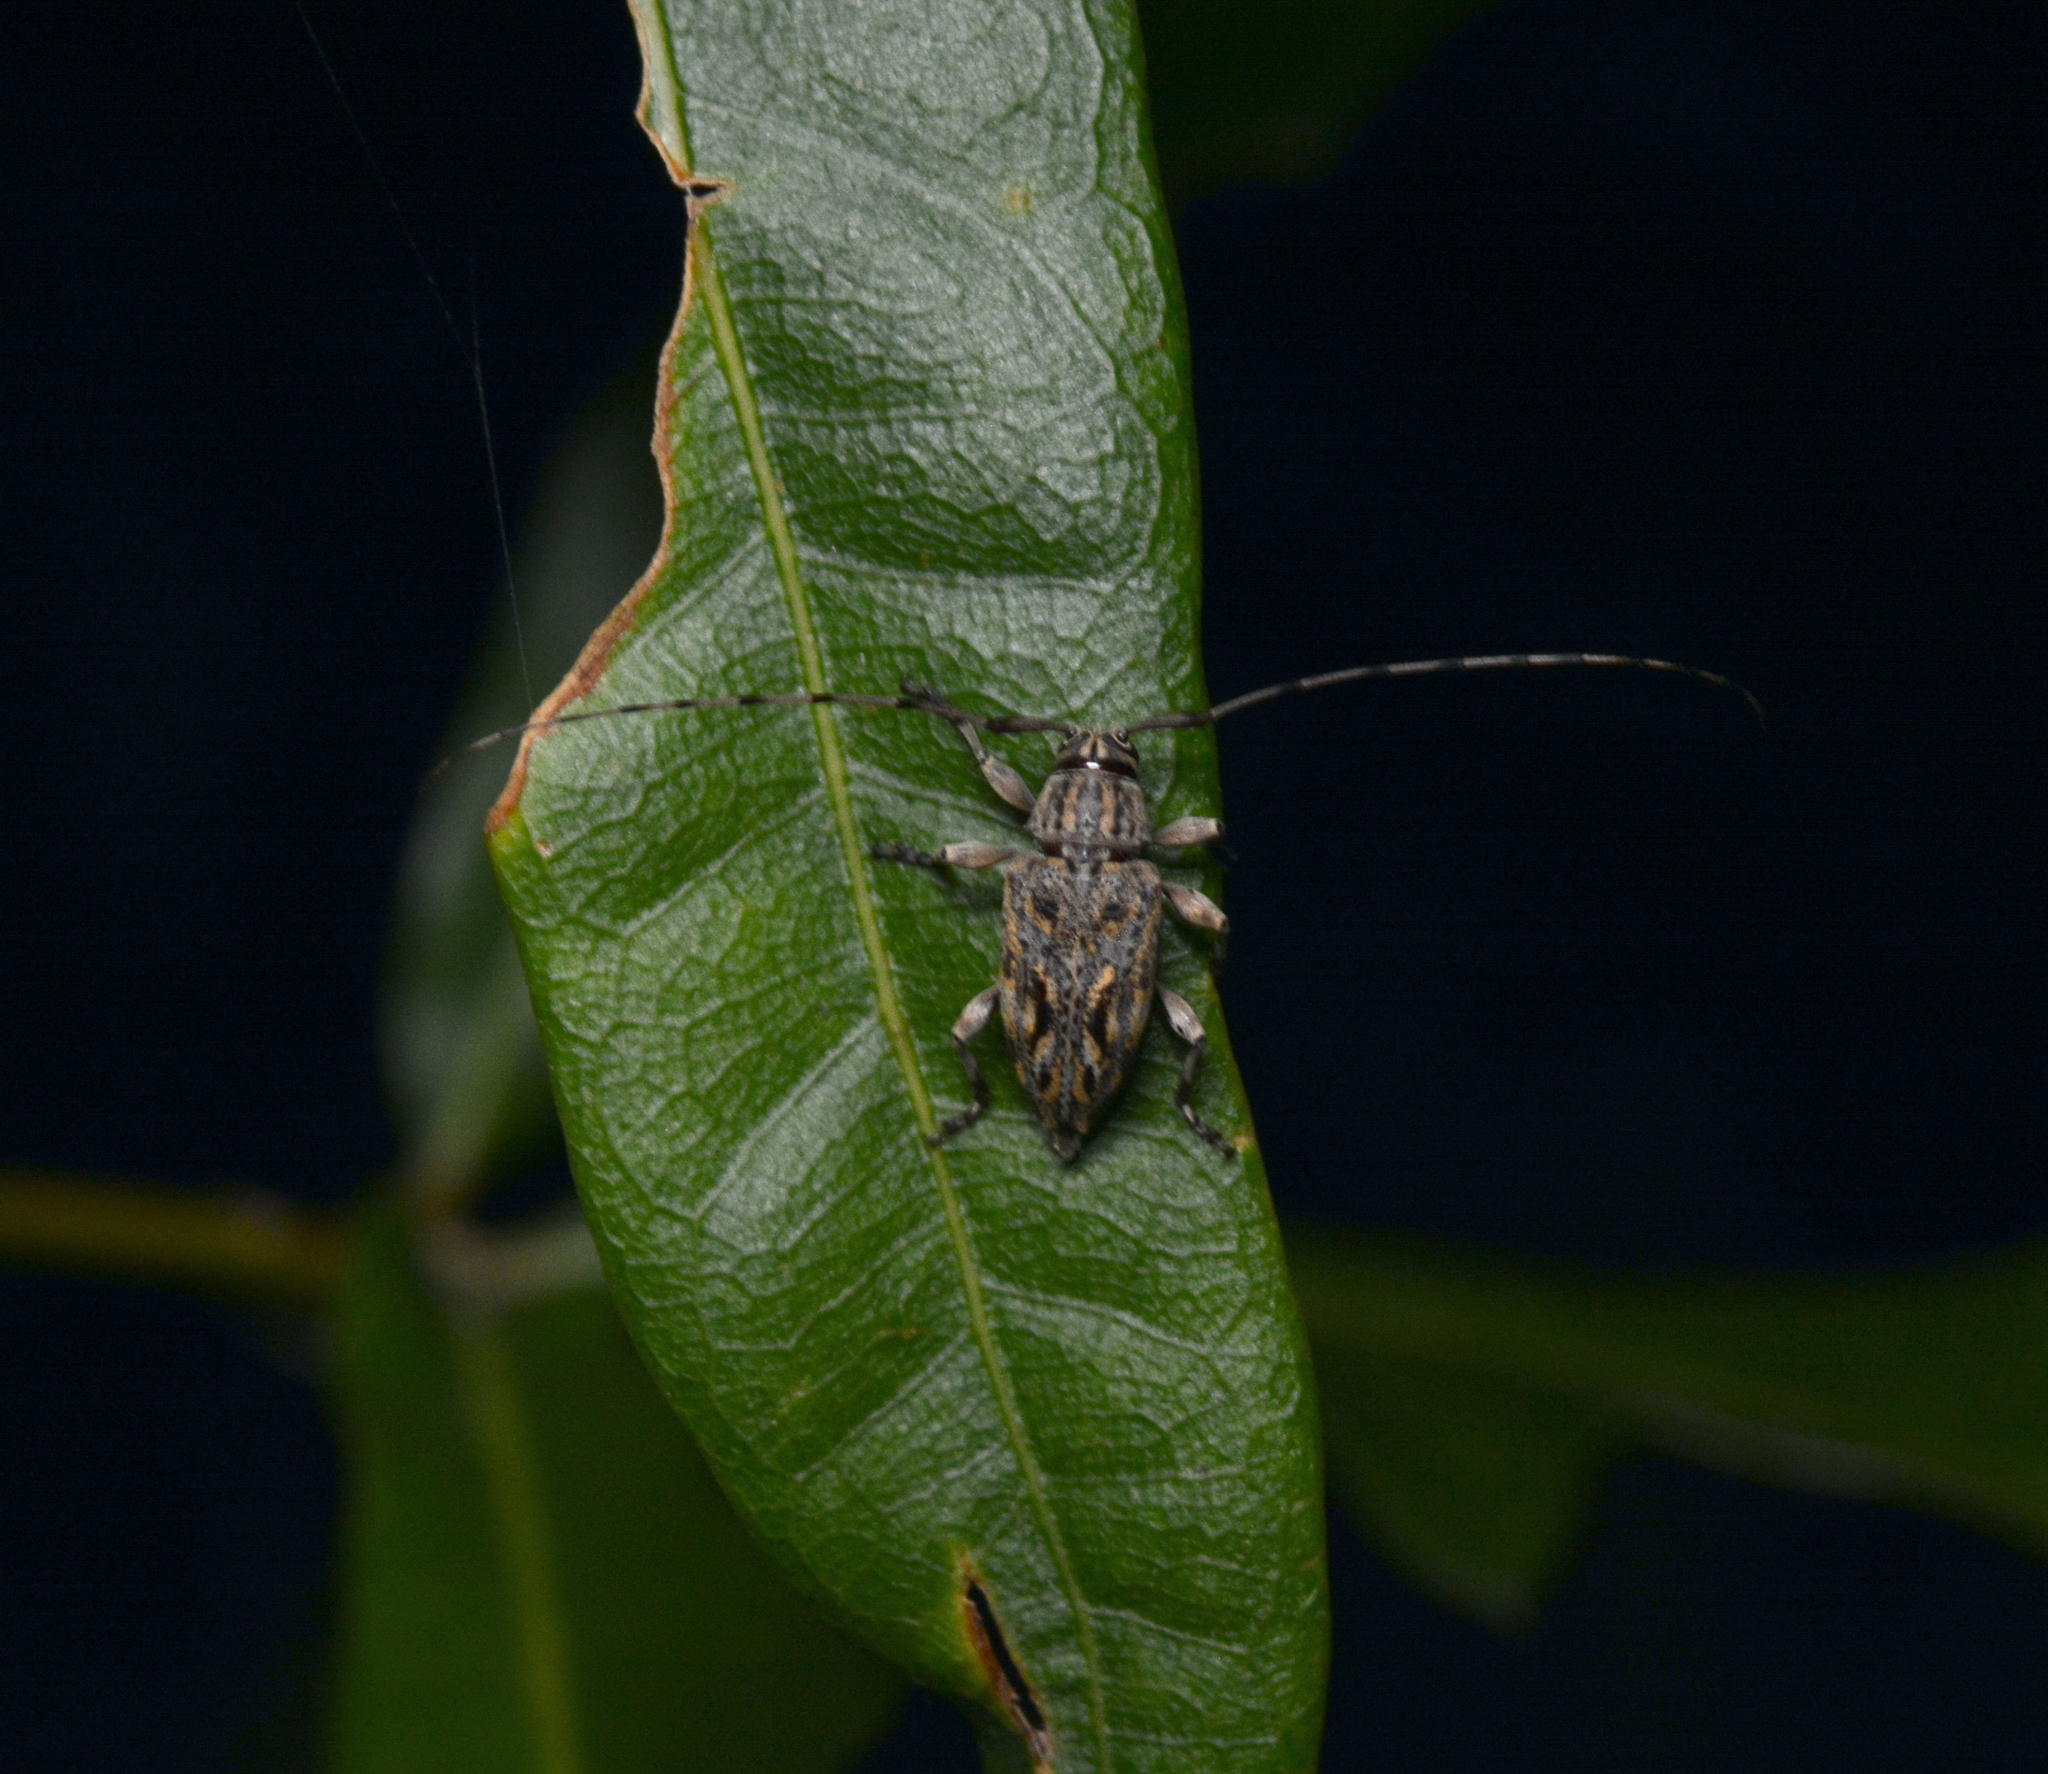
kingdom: Animalia
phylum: Arthropoda
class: Insecta
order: Coleoptera
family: Cerambycidae
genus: Atrypanius
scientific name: Atrypanius haldemani
